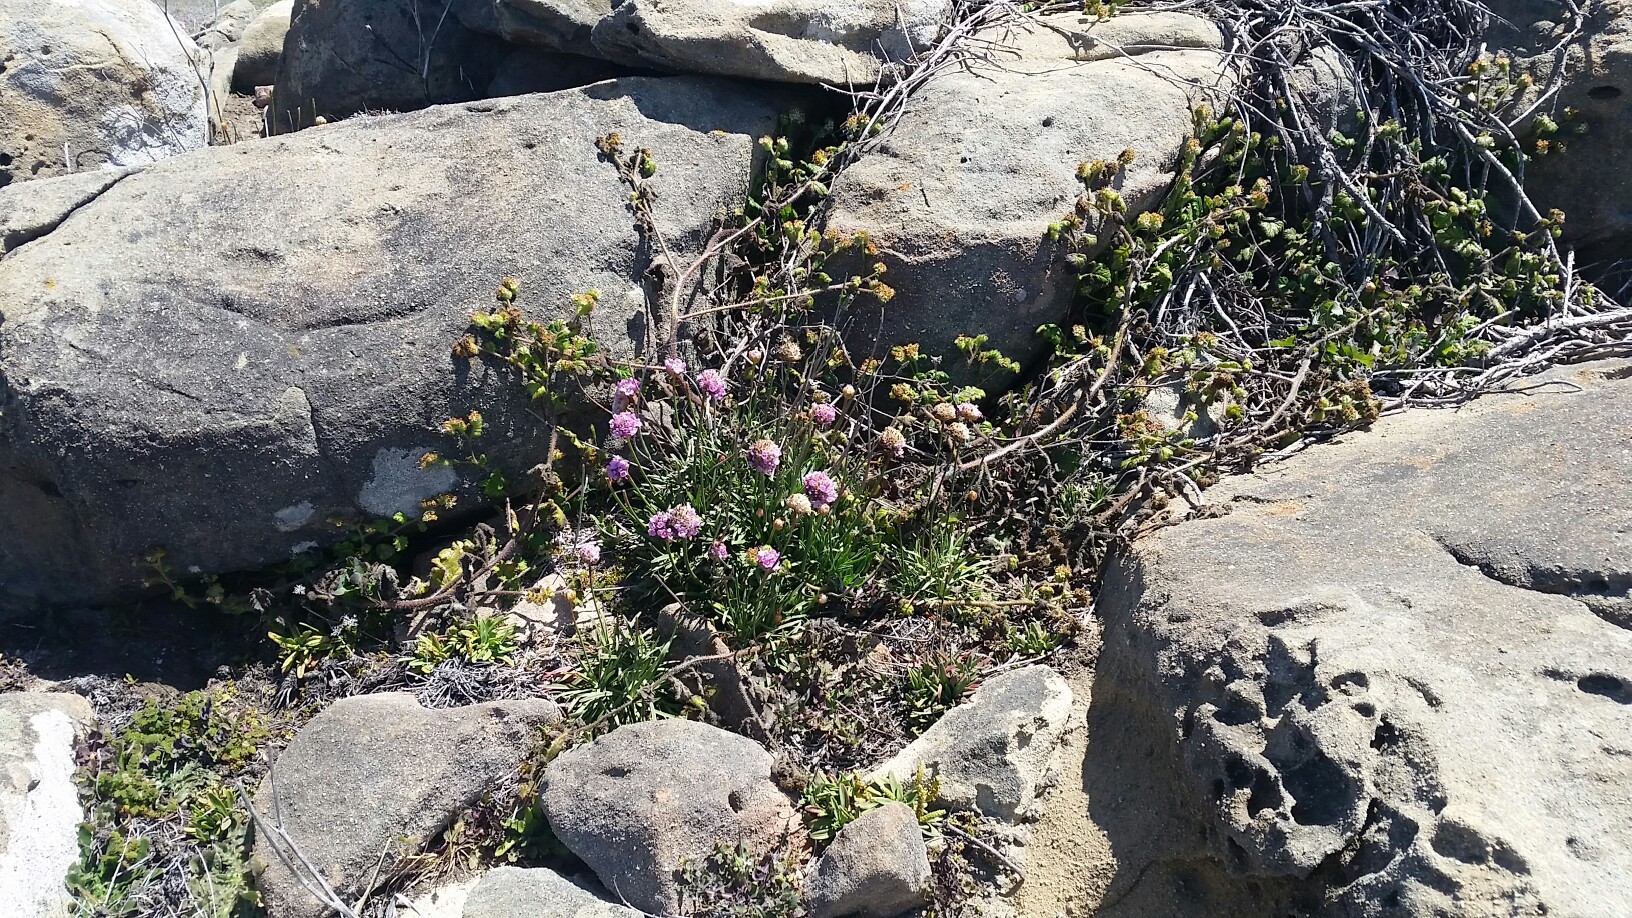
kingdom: Plantae
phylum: Tracheophyta
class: Magnoliopsida
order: Caryophyllales
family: Plumbaginaceae
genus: Armeria
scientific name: Armeria maritima
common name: Thrift
